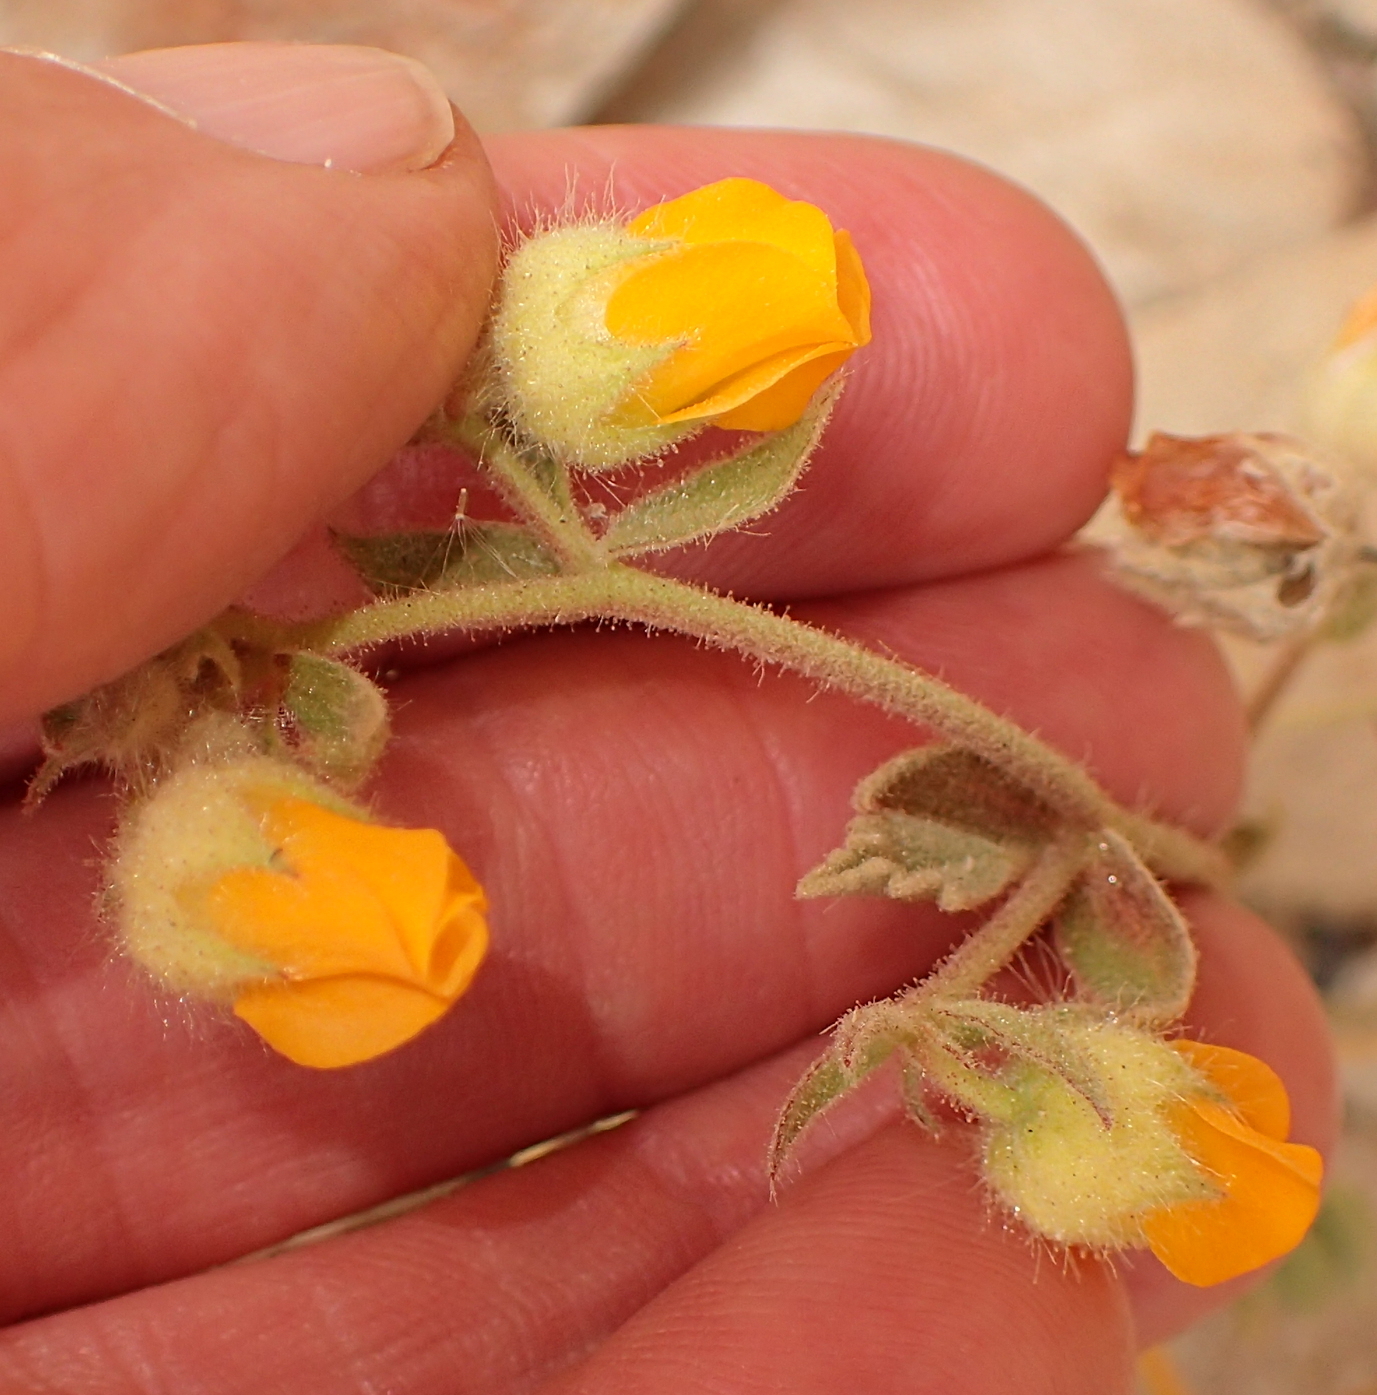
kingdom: Plantae
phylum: Tracheophyta
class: Magnoliopsida
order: Malvales
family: Malvaceae
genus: Hermannia
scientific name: Hermannia althaeifolia
